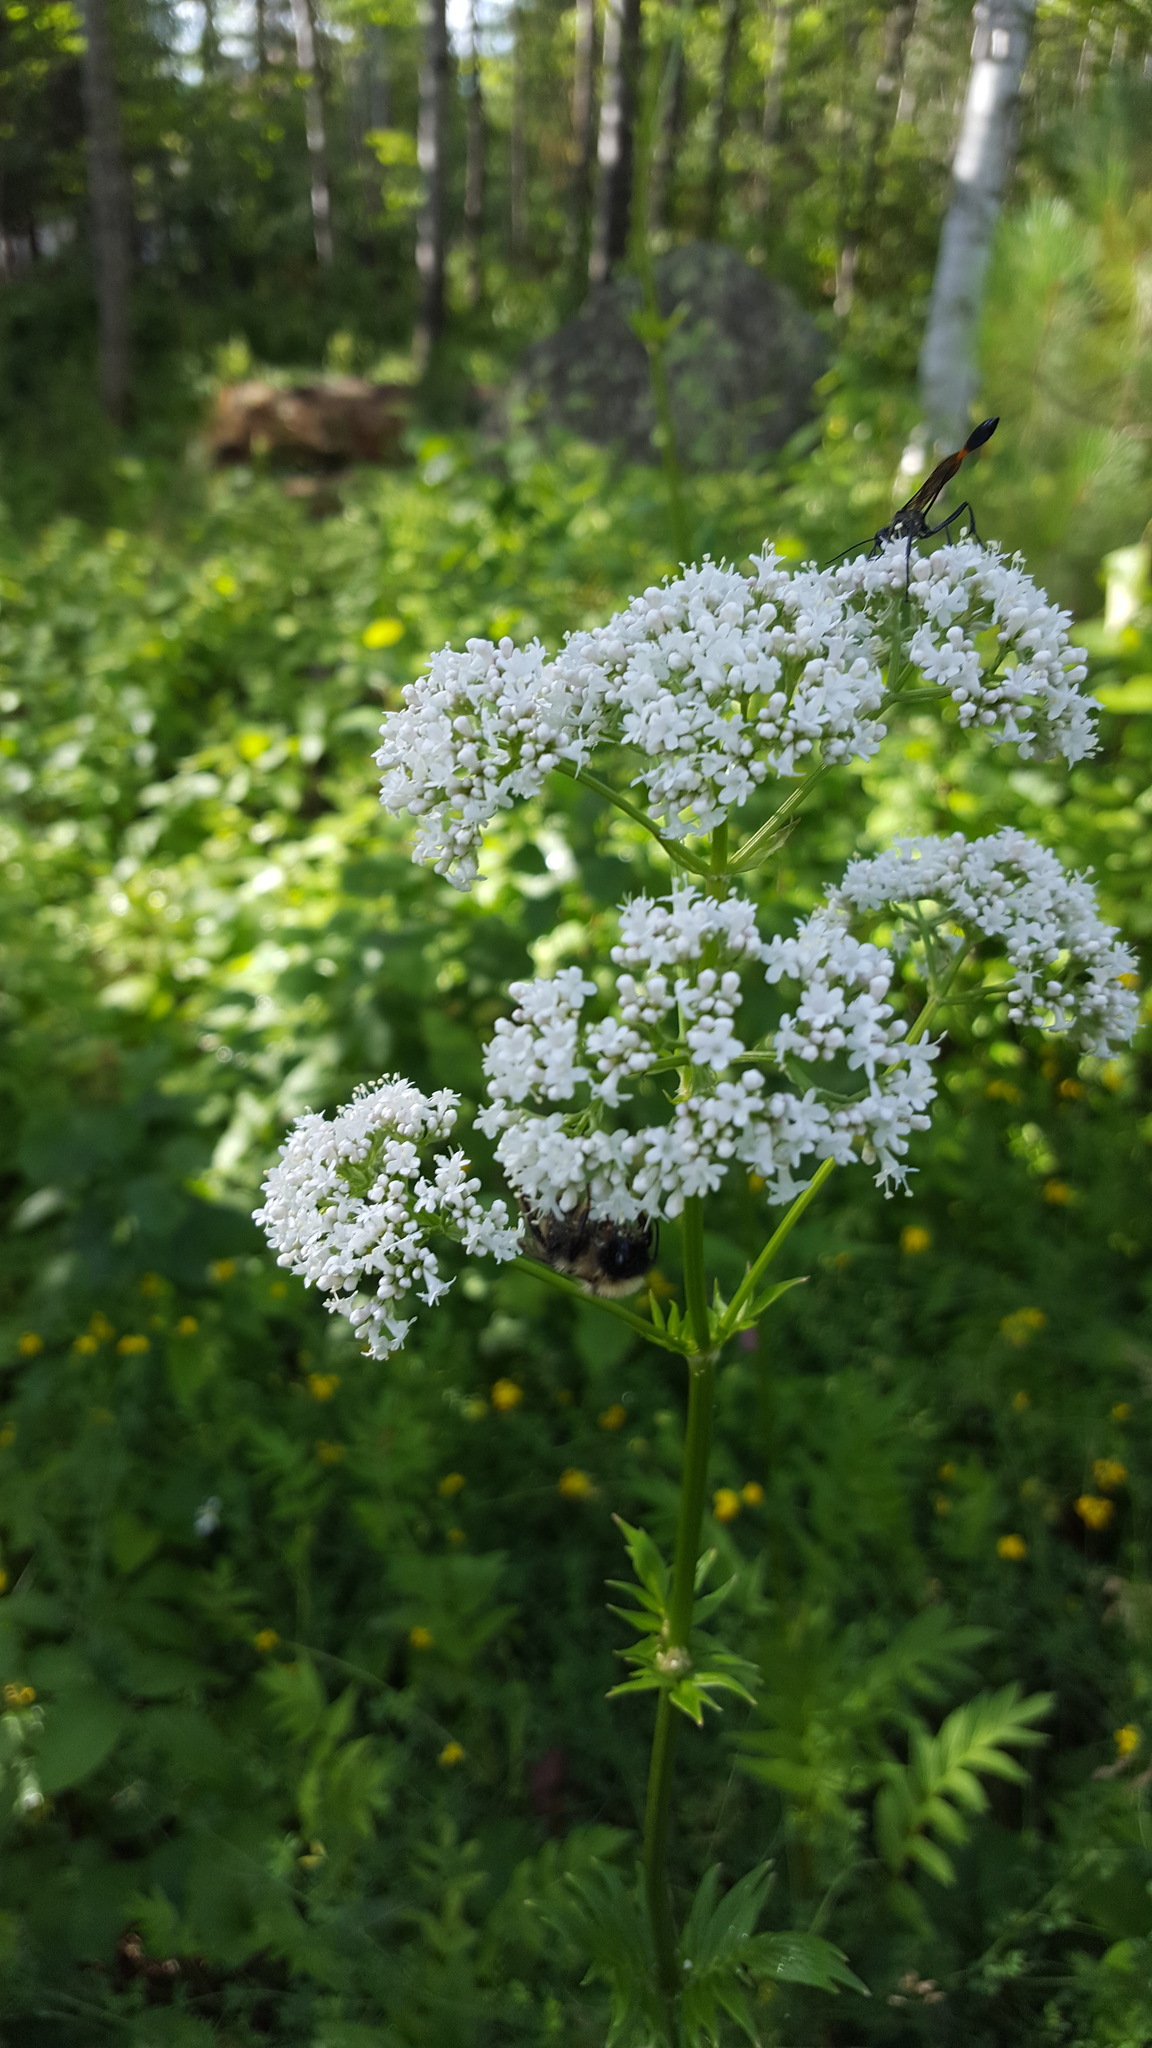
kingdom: Plantae
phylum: Tracheophyta
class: Magnoliopsida
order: Dipsacales
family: Caprifoliaceae
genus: Valeriana
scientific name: Valeriana officinalis
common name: Common valerian
